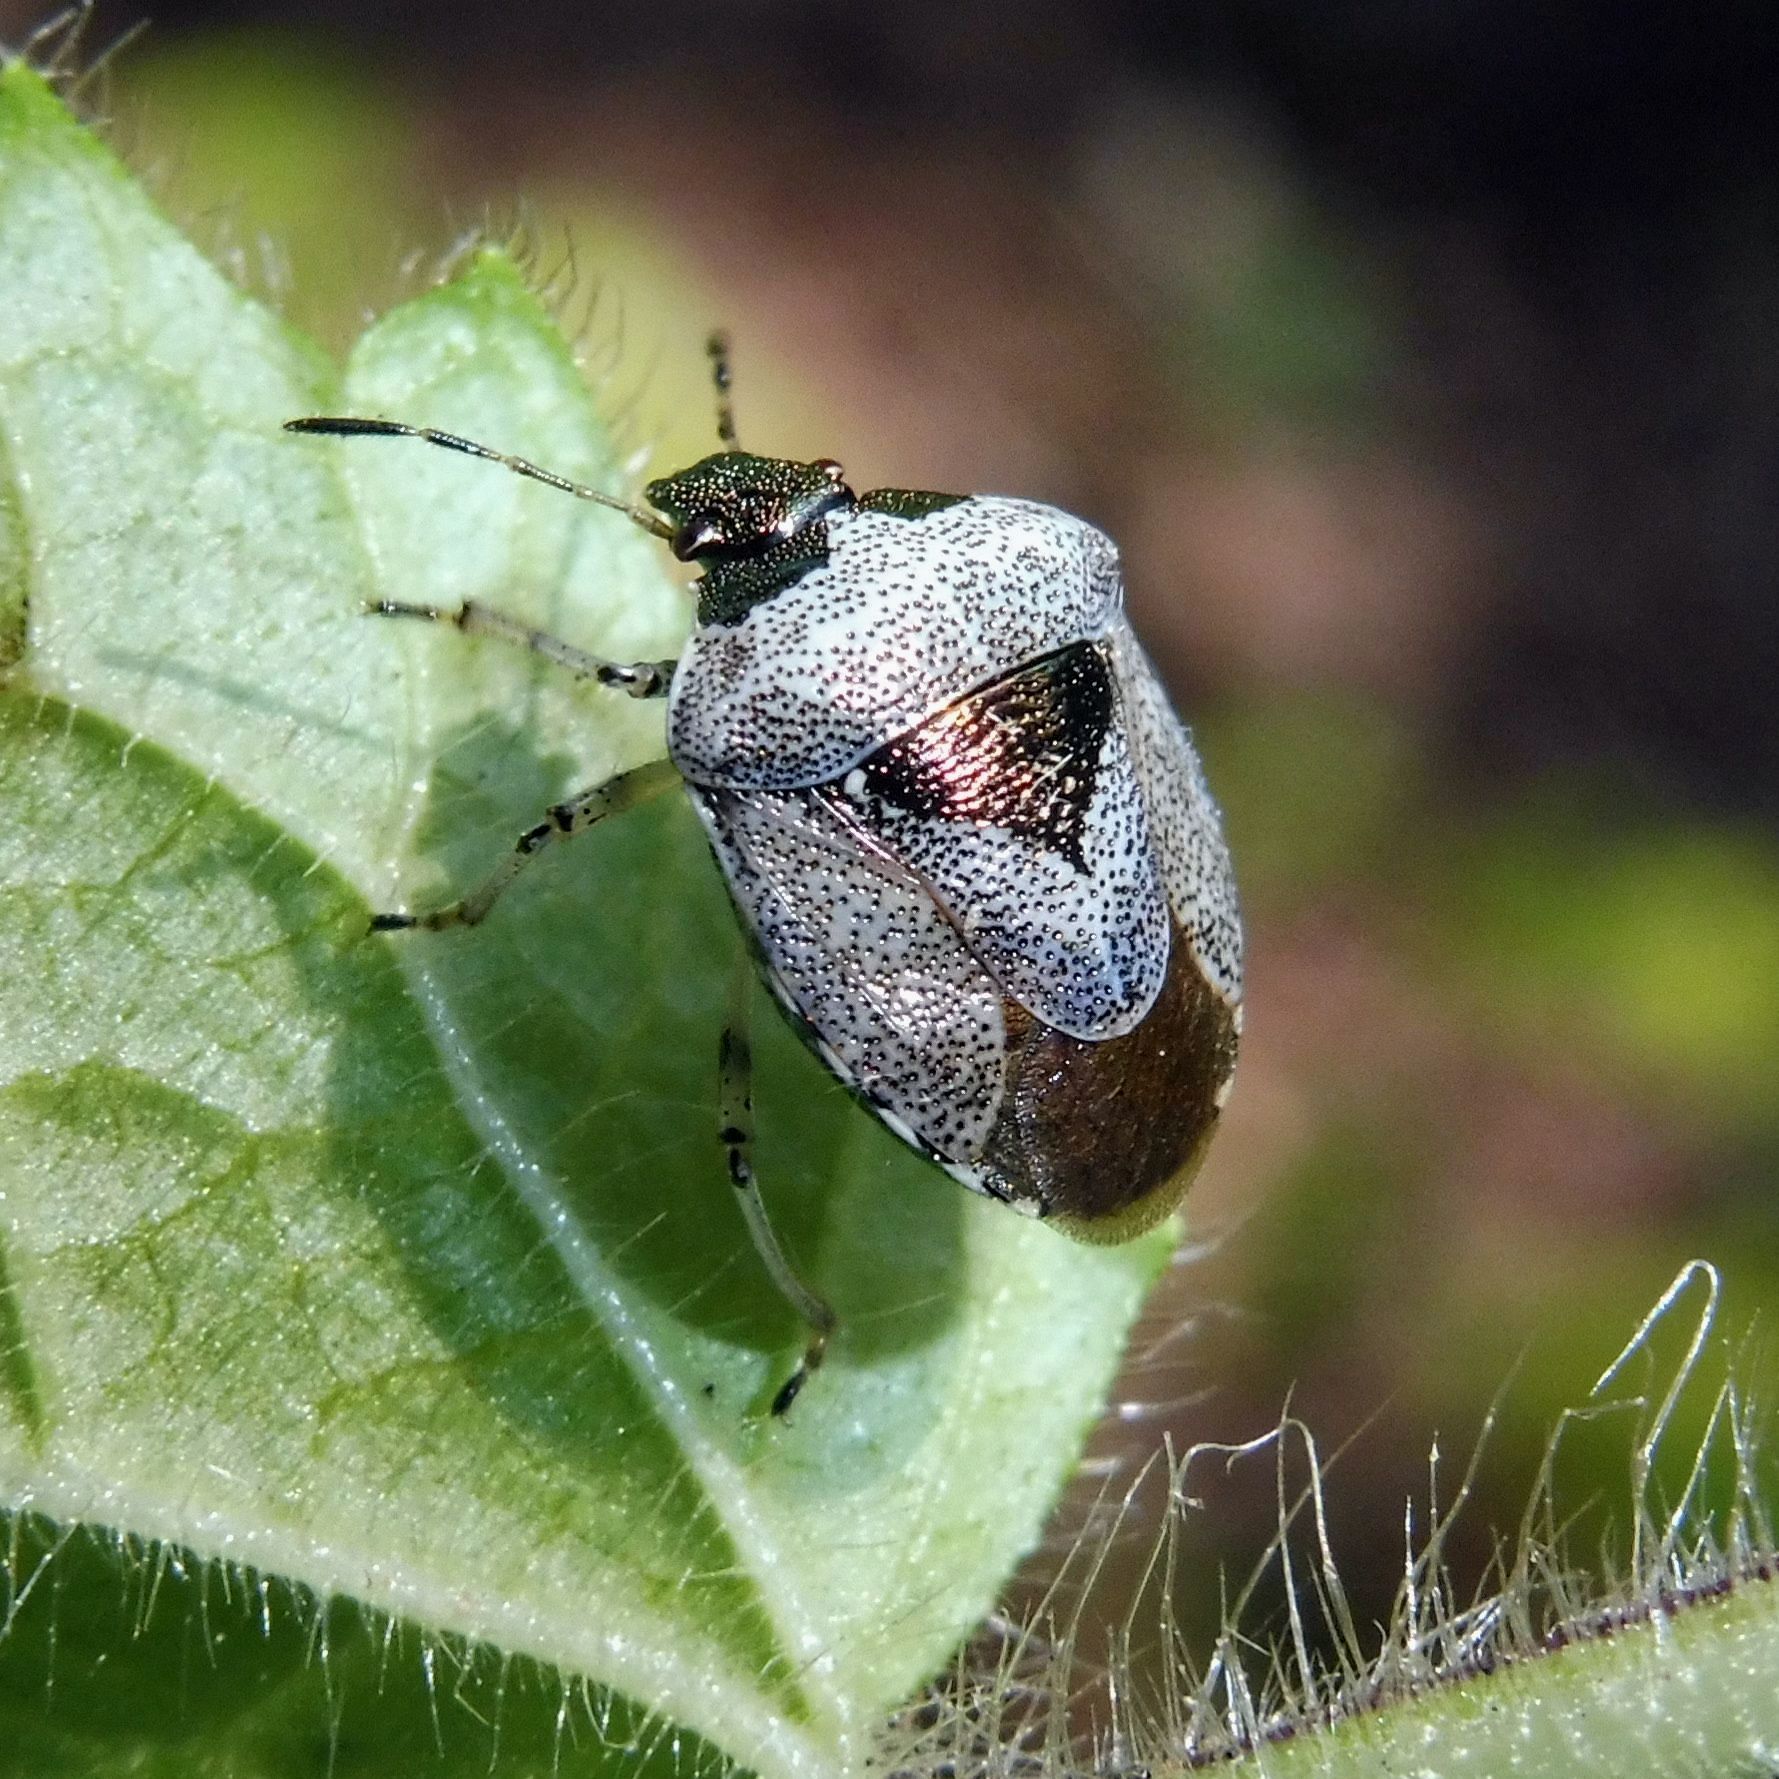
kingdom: Animalia
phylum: Arthropoda
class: Insecta
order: Hemiptera
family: Pentatomidae
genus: Eysarcoris
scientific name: Eysarcoris venustissimus
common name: Woundwort shieldbug
